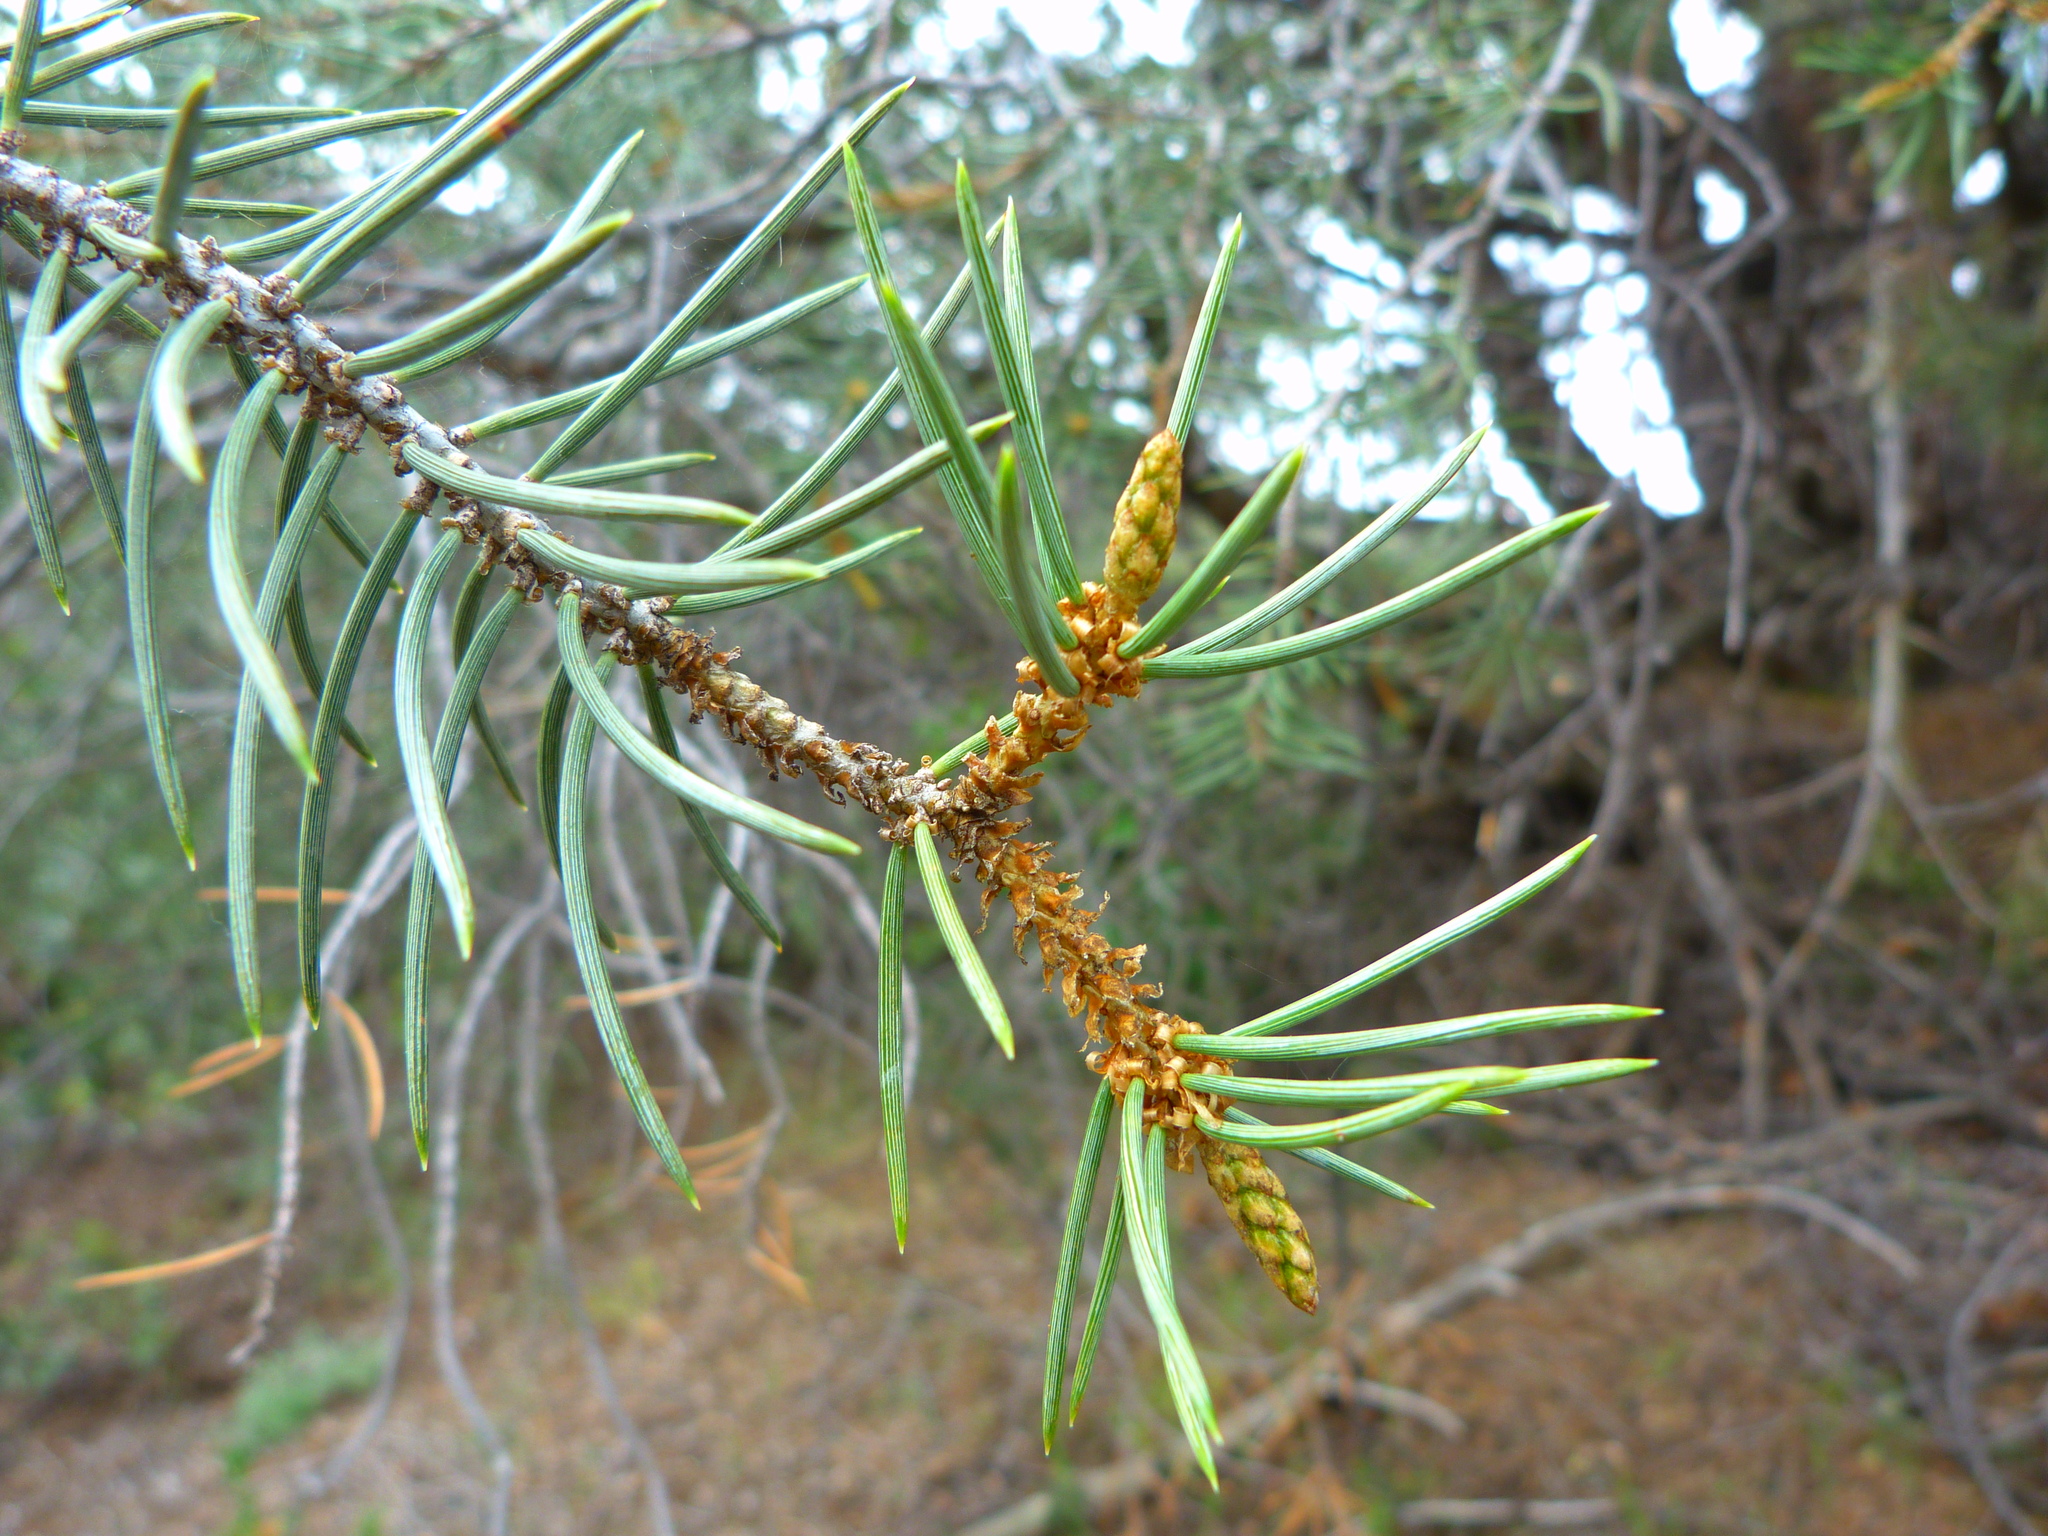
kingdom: Plantae
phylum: Tracheophyta
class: Pinopsida
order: Pinales
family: Pinaceae
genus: Pinus
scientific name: Pinus monophylla
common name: One-leaved nut pine
